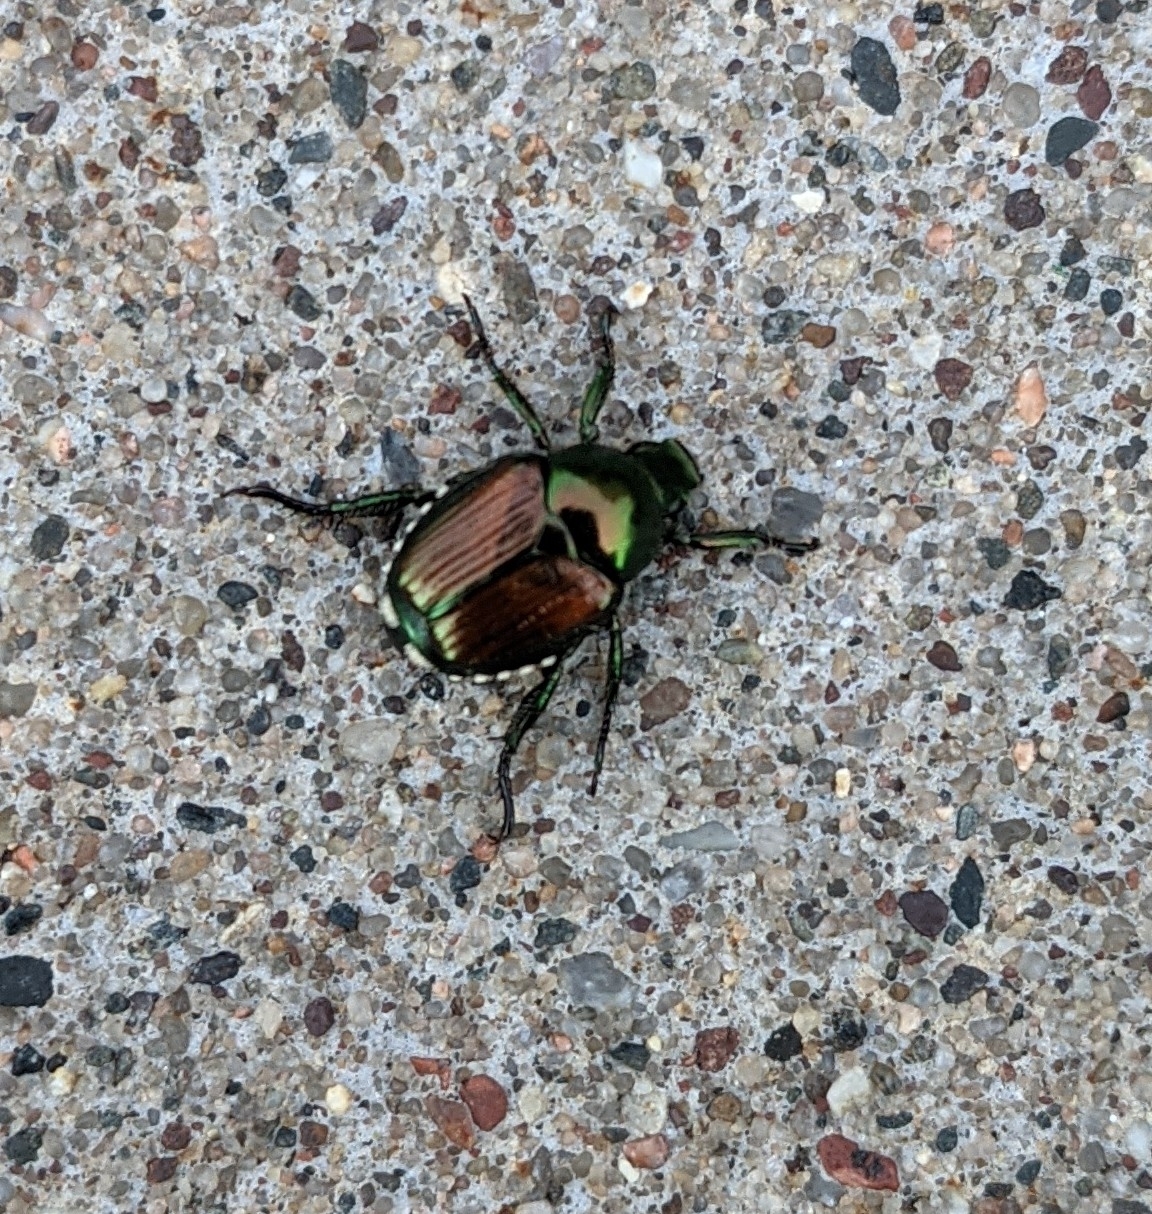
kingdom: Animalia
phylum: Arthropoda
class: Insecta
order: Coleoptera
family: Scarabaeidae
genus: Popillia
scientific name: Popillia japonica
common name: Japanese beetle
